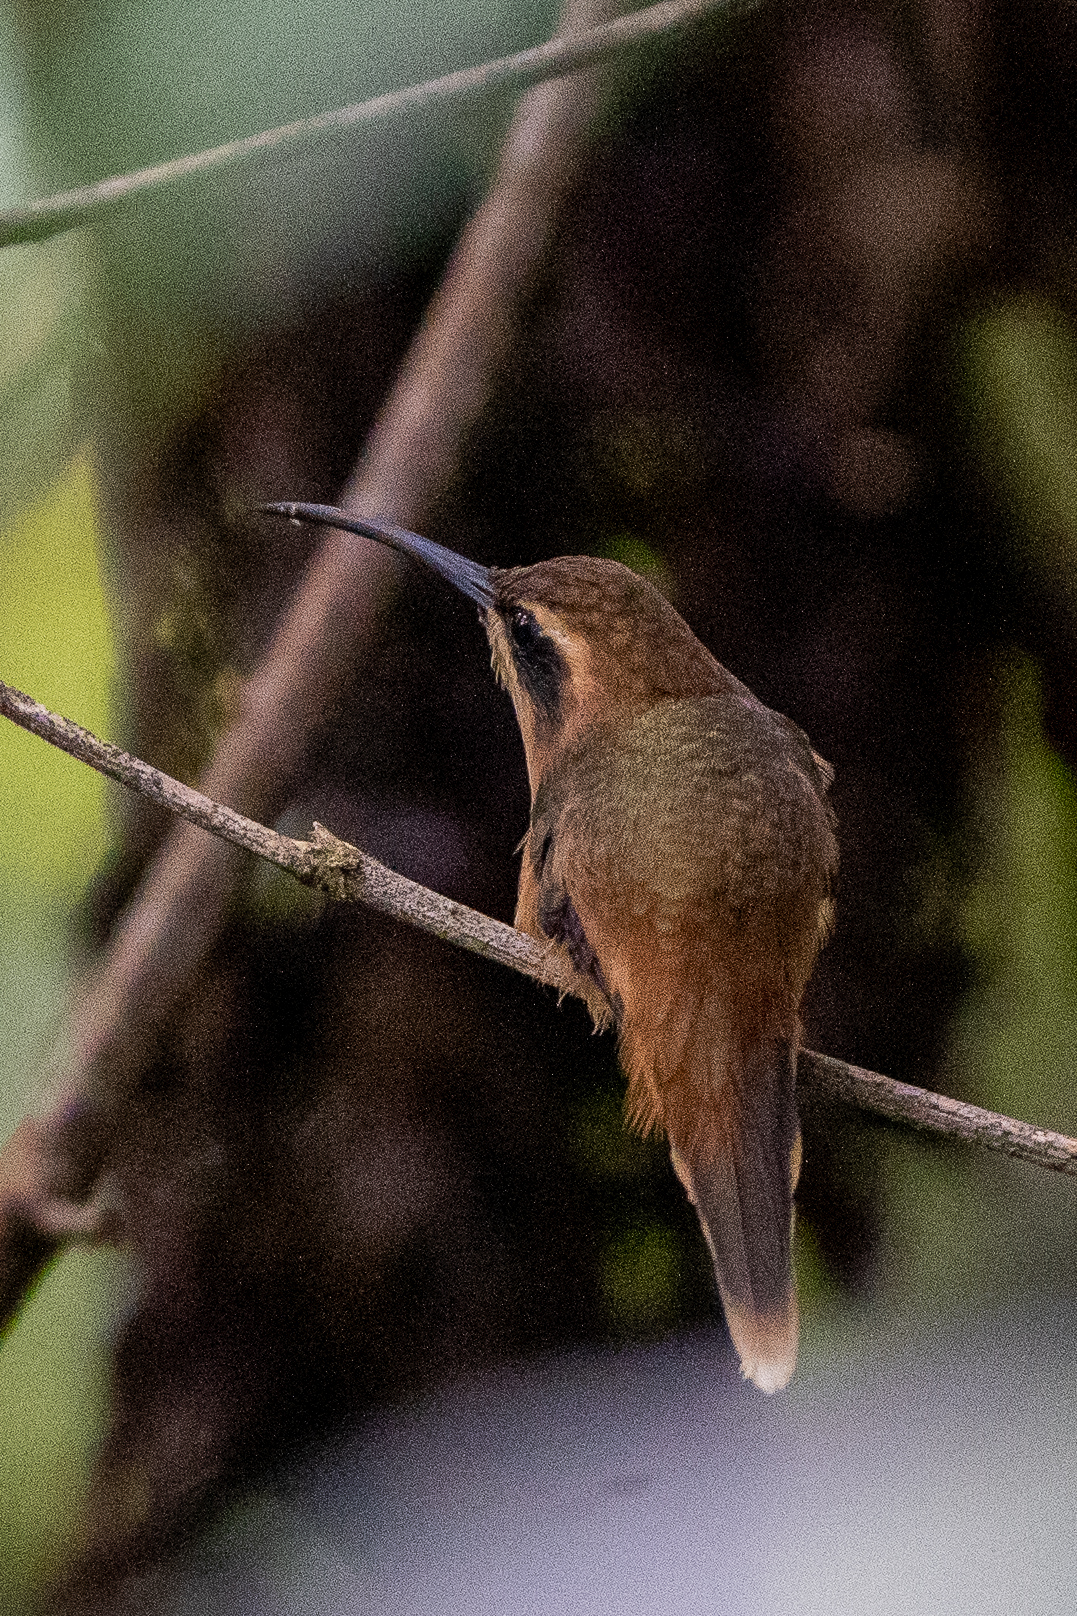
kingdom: Animalia
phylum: Chordata
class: Aves
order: Apodiformes
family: Trochilidae
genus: Phaethornis
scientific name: Phaethornis striigularis
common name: Stripe-throated hermit
